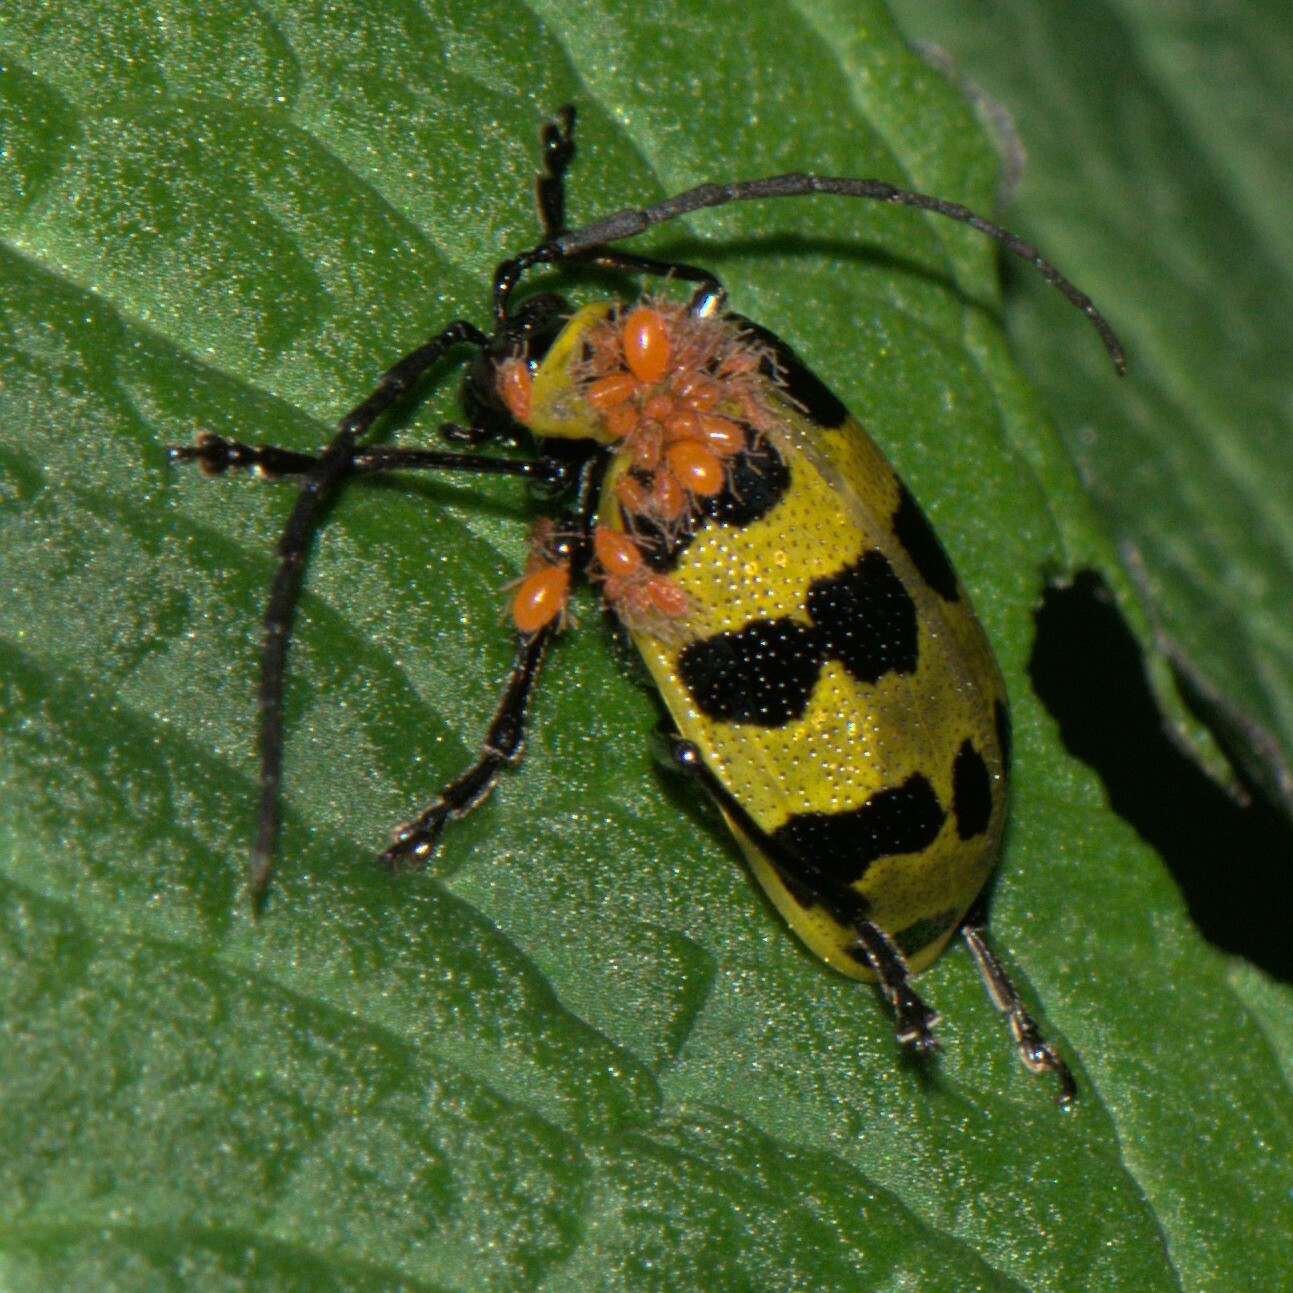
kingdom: Animalia
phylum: Arthropoda
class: Insecta
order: Coleoptera
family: Chrysomelidae
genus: Meristata
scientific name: Meristata quadrifasciata
